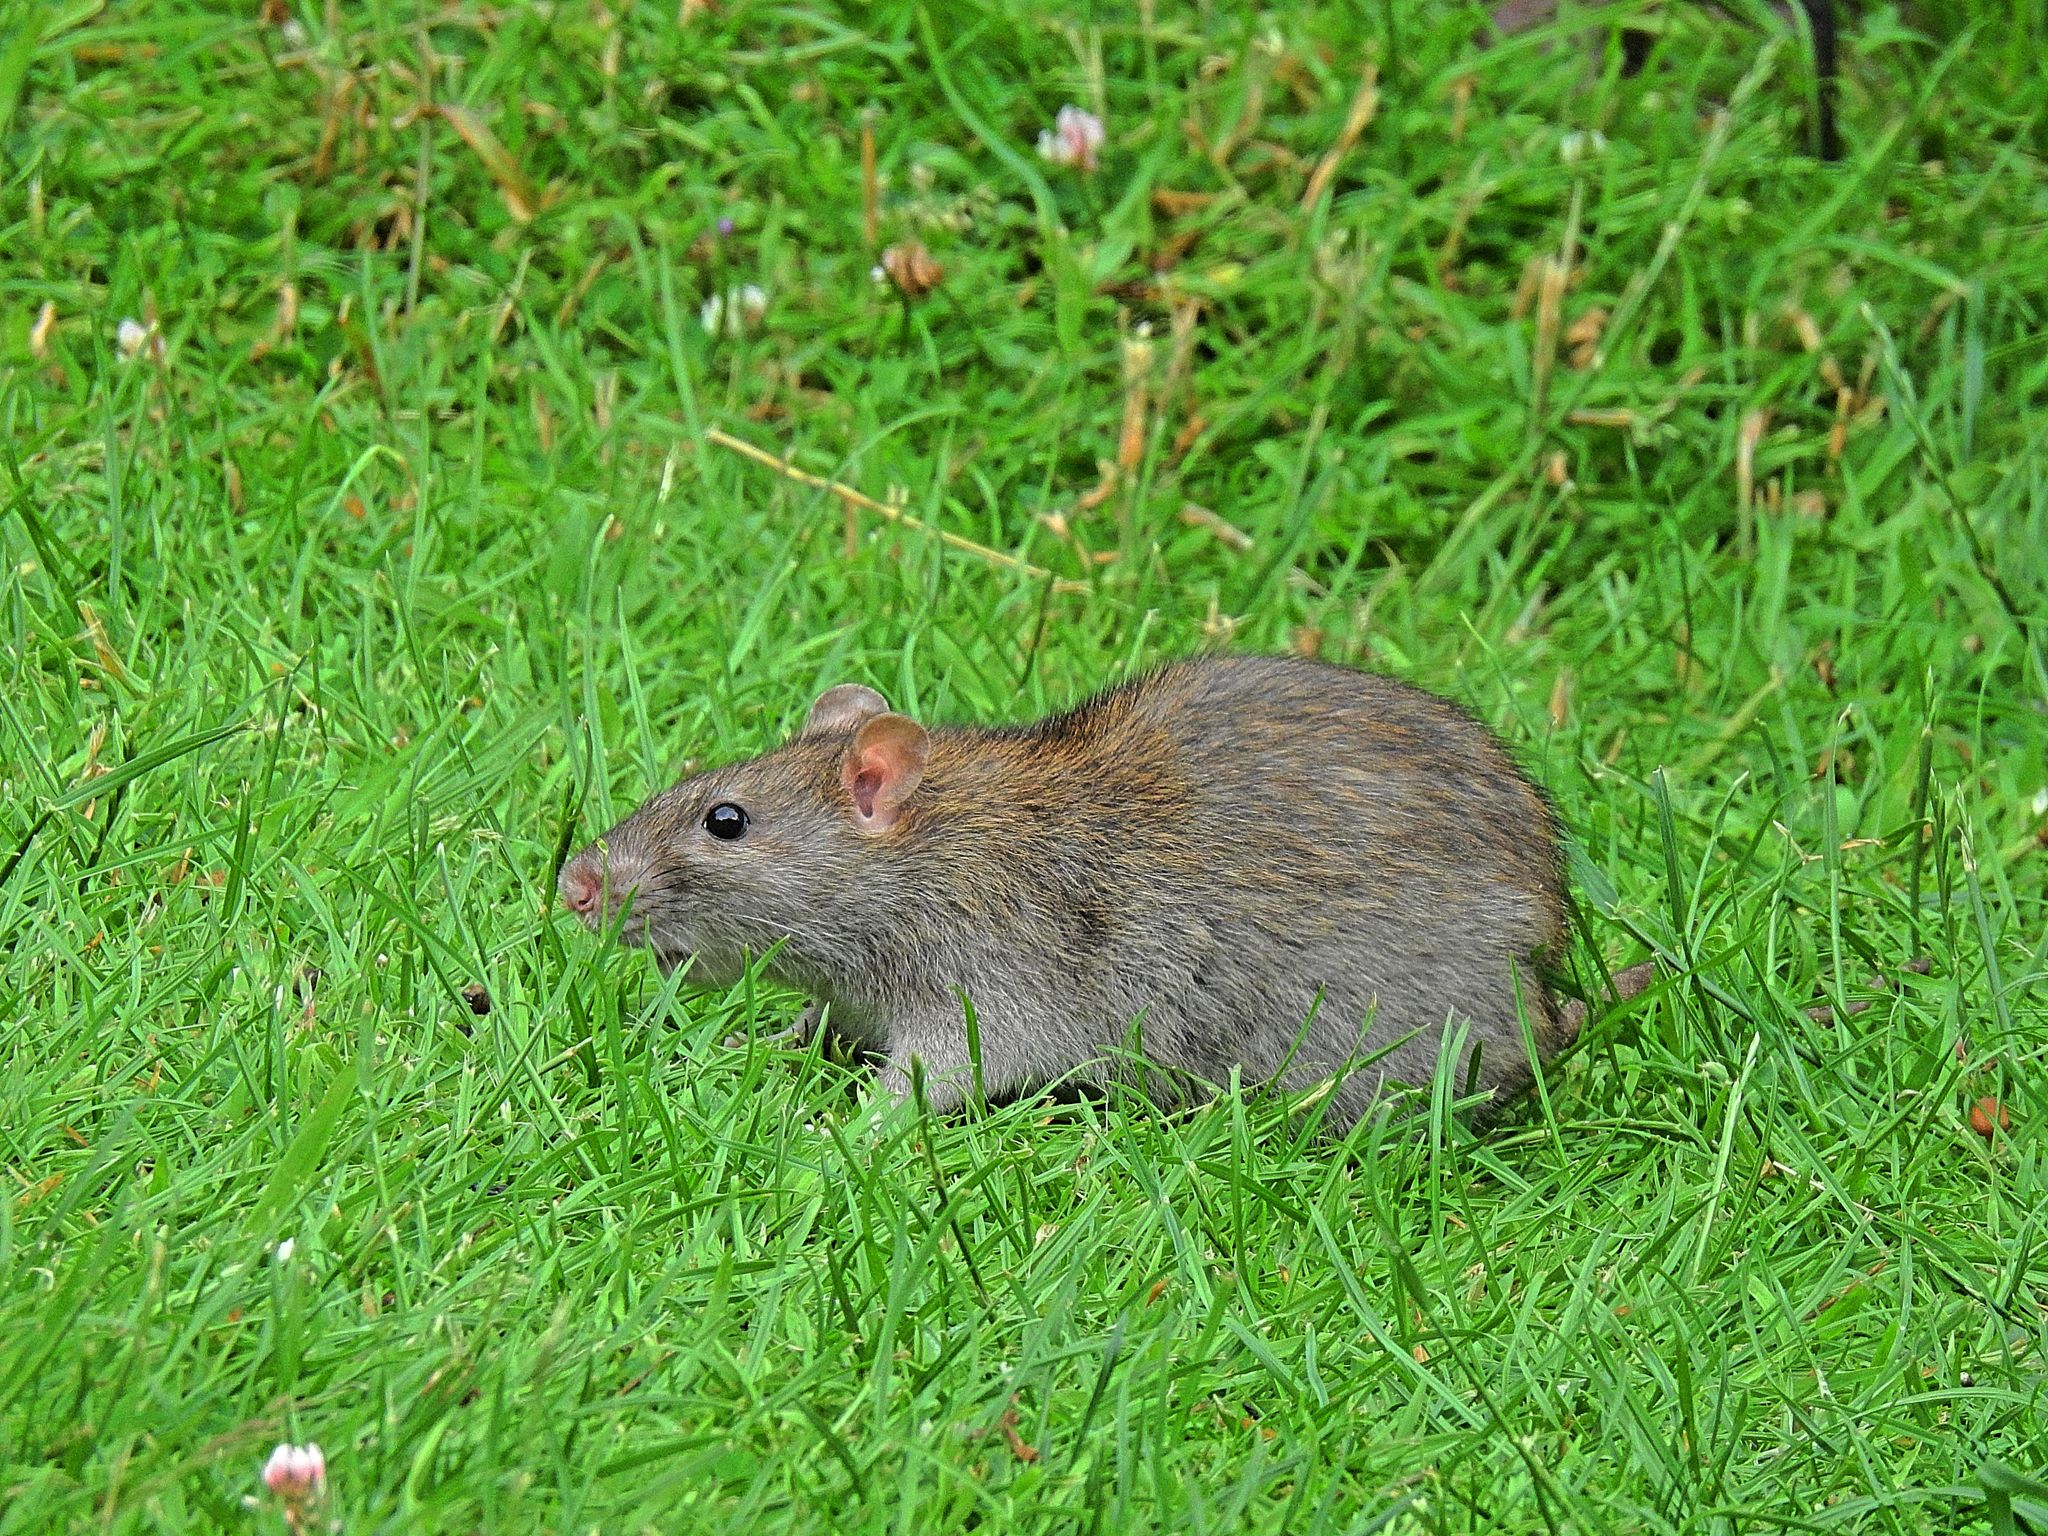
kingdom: Animalia
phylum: Chordata
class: Mammalia
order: Rodentia
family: Muridae
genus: Rattus
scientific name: Rattus norvegicus
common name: Brown rat
